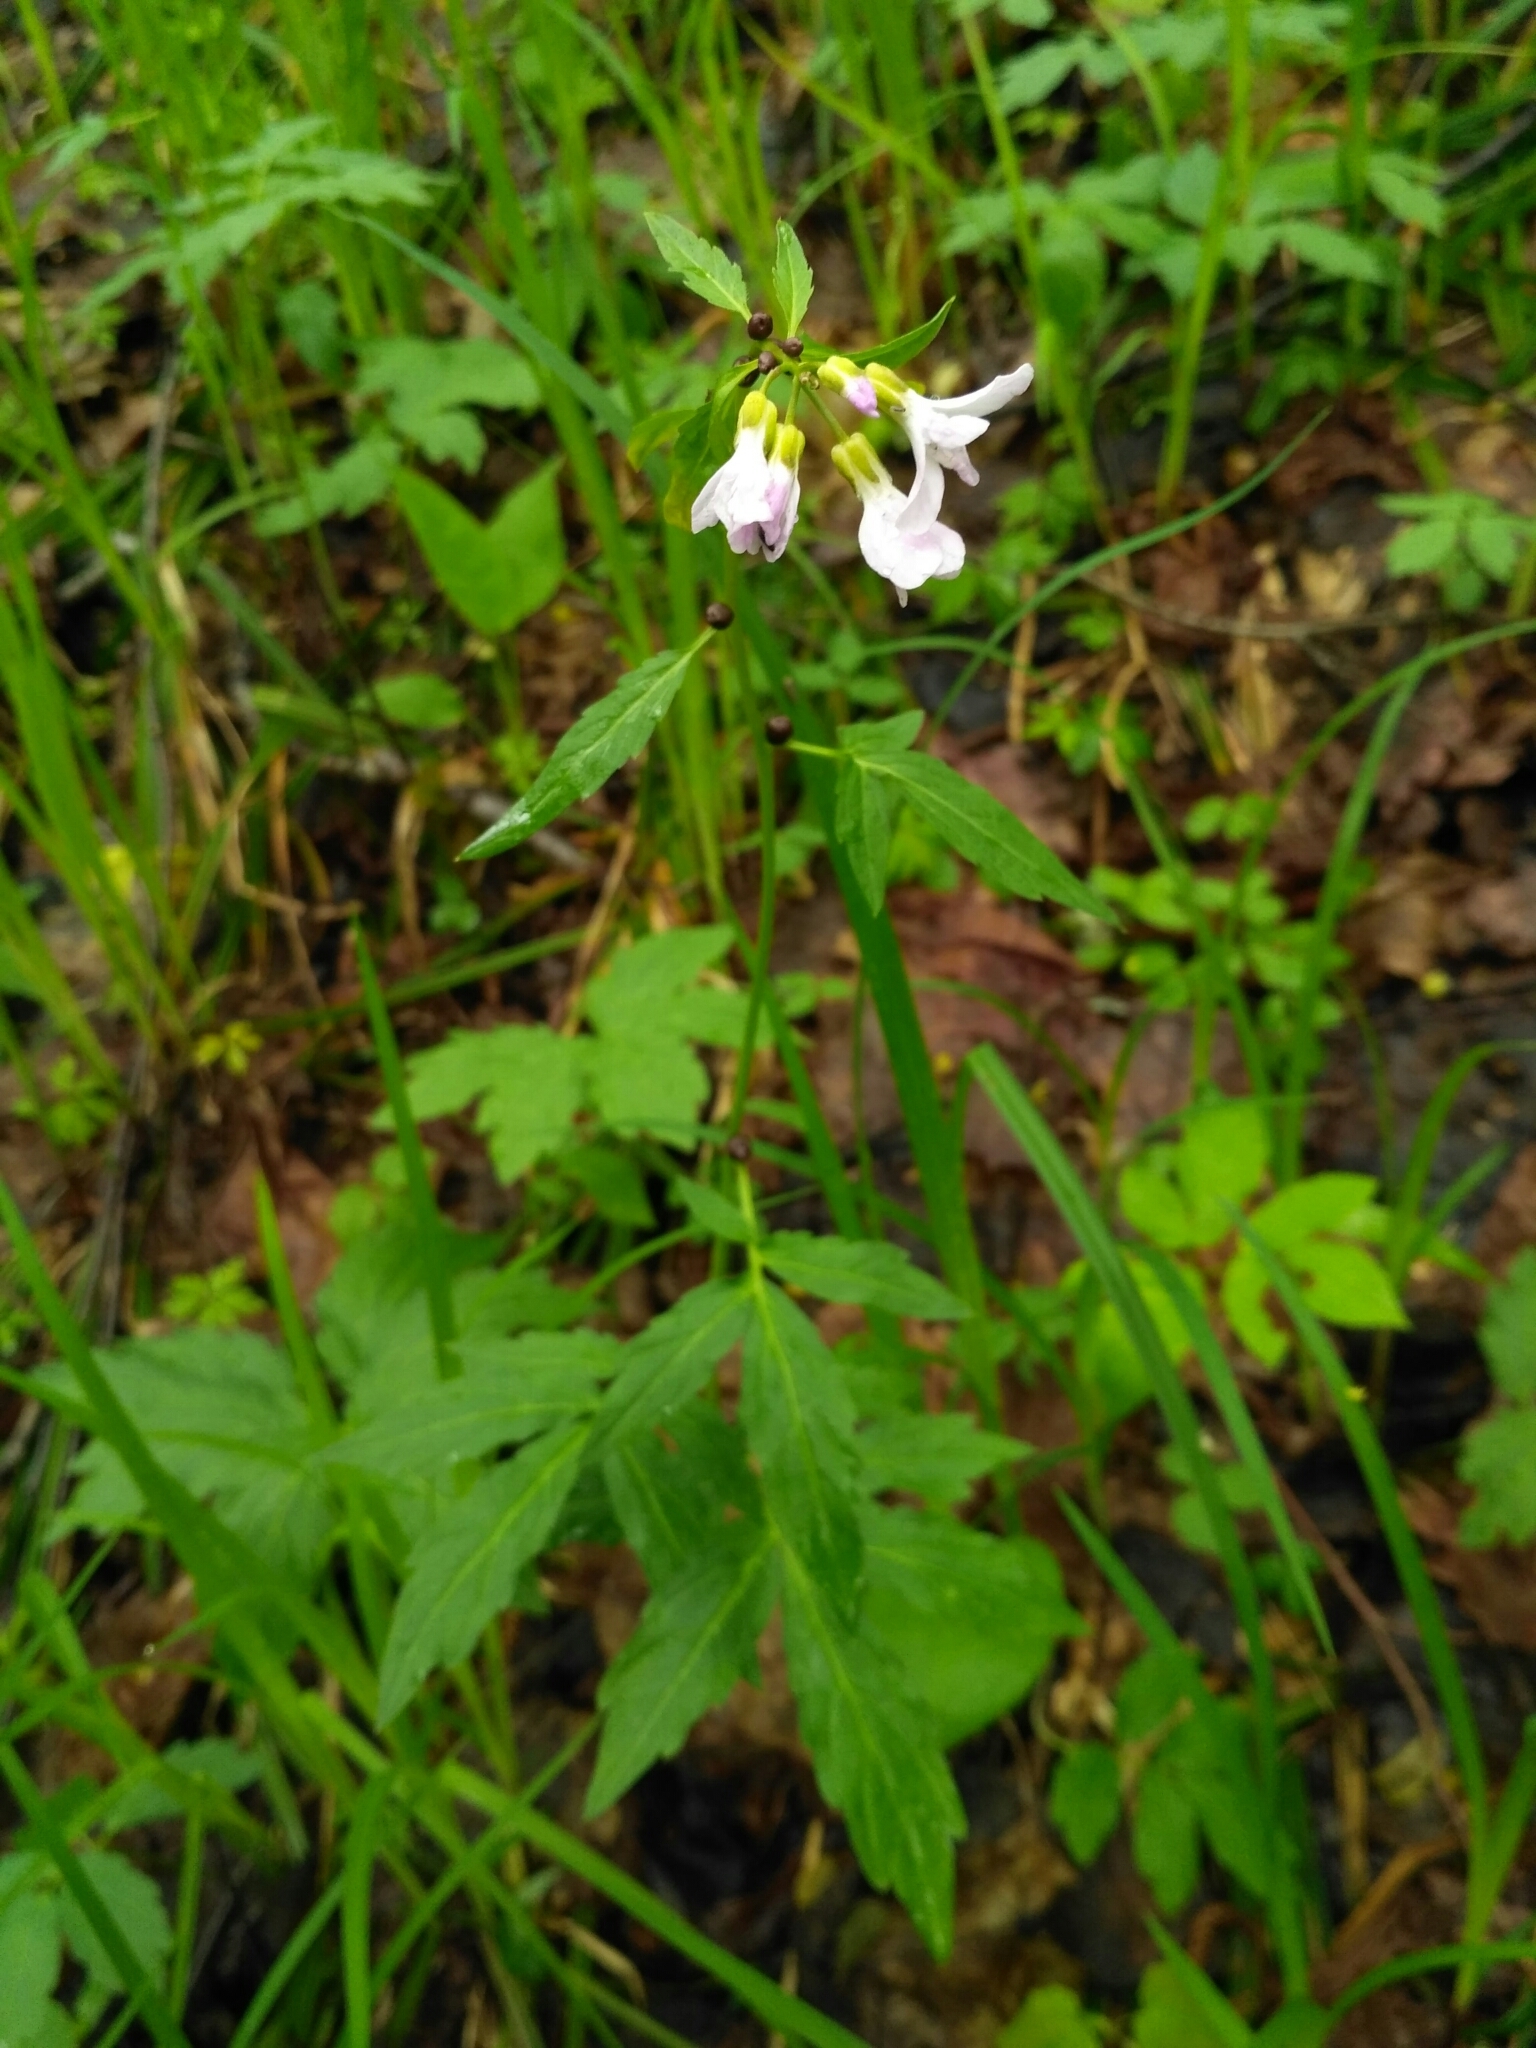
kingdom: Plantae
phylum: Tracheophyta
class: Magnoliopsida
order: Brassicales
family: Brassicaceae
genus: Cardamine
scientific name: Cardamine bulbifera
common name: Coralroot bittercress
